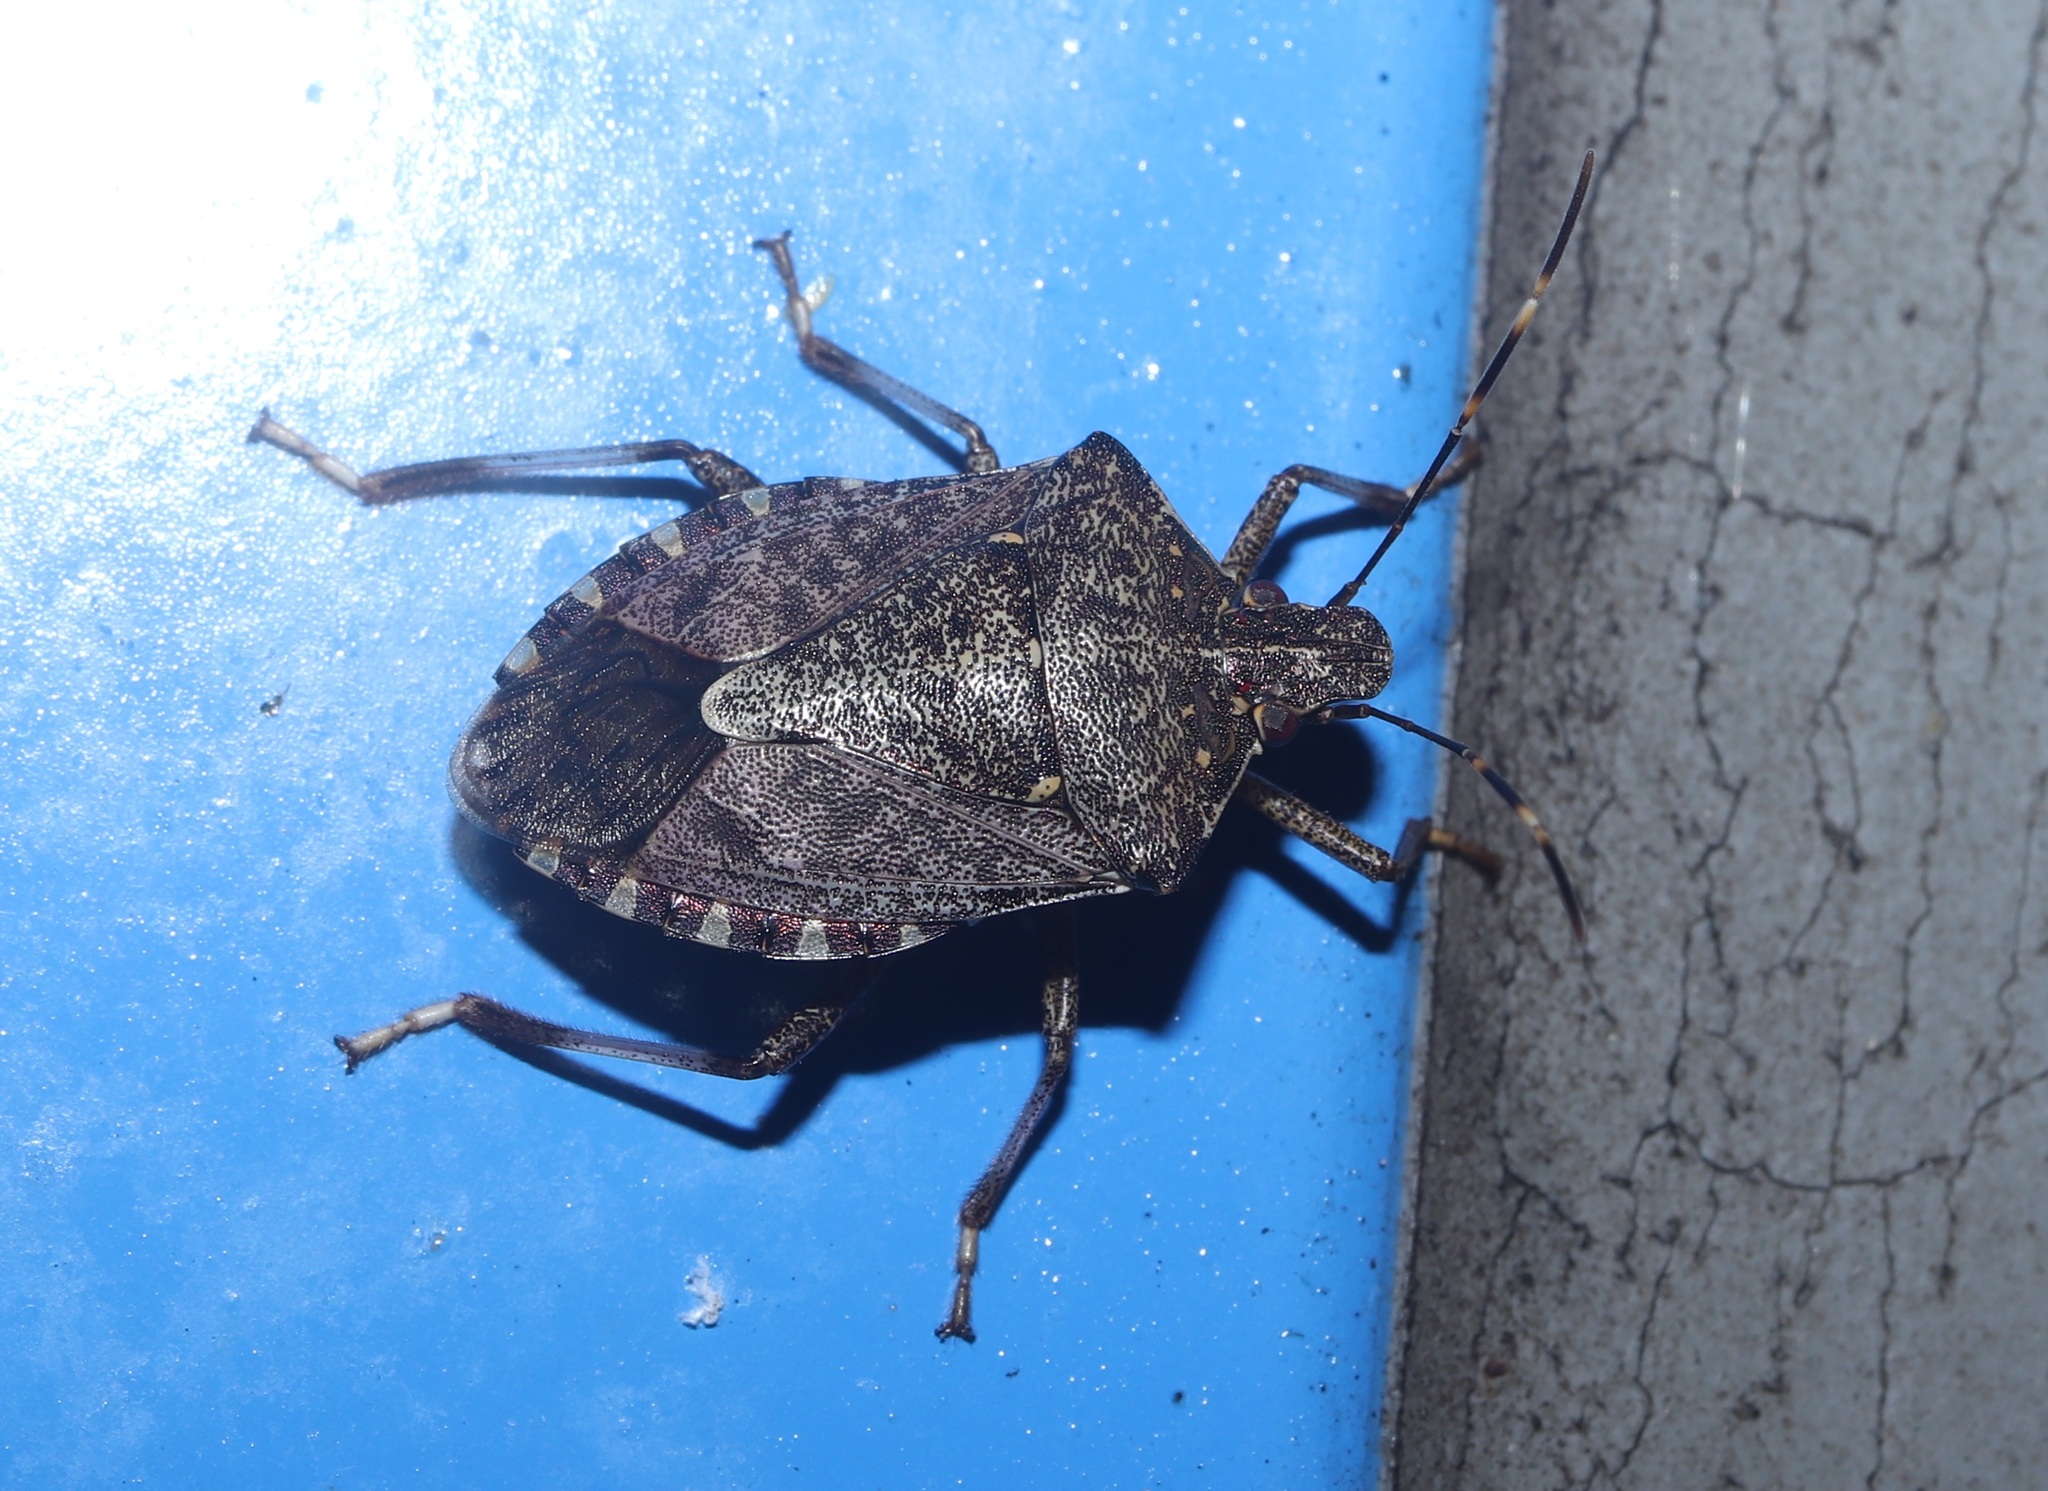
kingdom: Animalia
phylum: Arthropoda
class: Insecta
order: Hemiptera
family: Pentatomidae
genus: Halyomorpha
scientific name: Halyomorpha halys
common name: Brown marmorated stink bug
